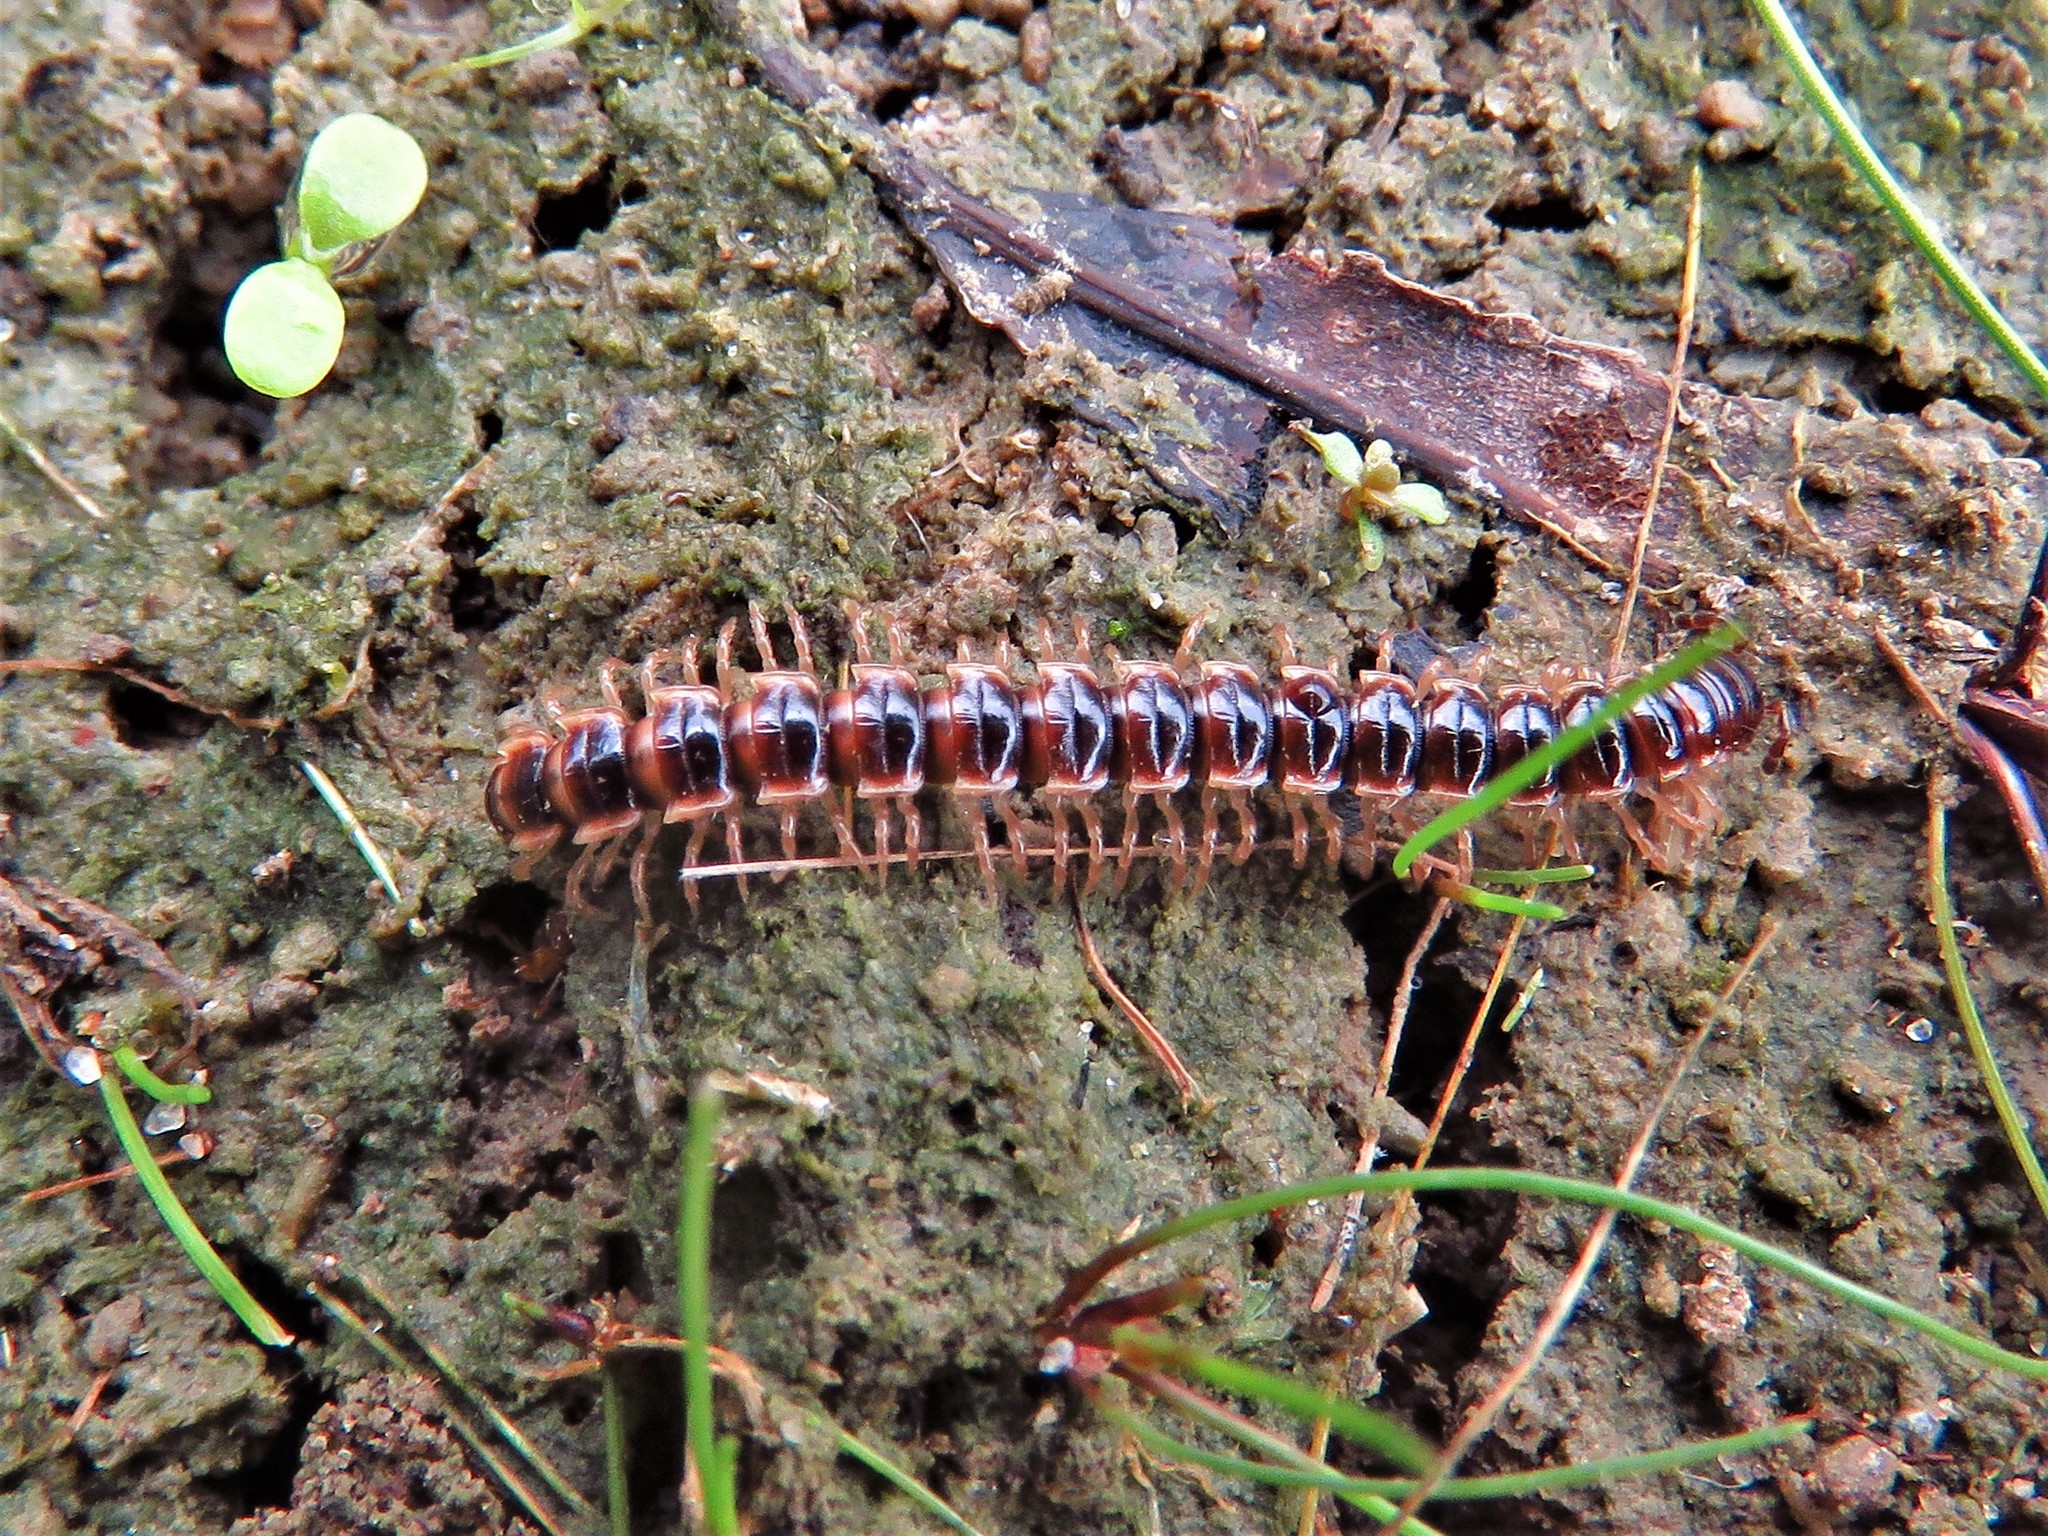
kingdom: Animalia
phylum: Arthropoda
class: Diplopoda
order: Polydesmida
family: Paradoxosomatidae
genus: Oxidus
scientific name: Oxidus gracilis
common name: Greenhouse millipede
